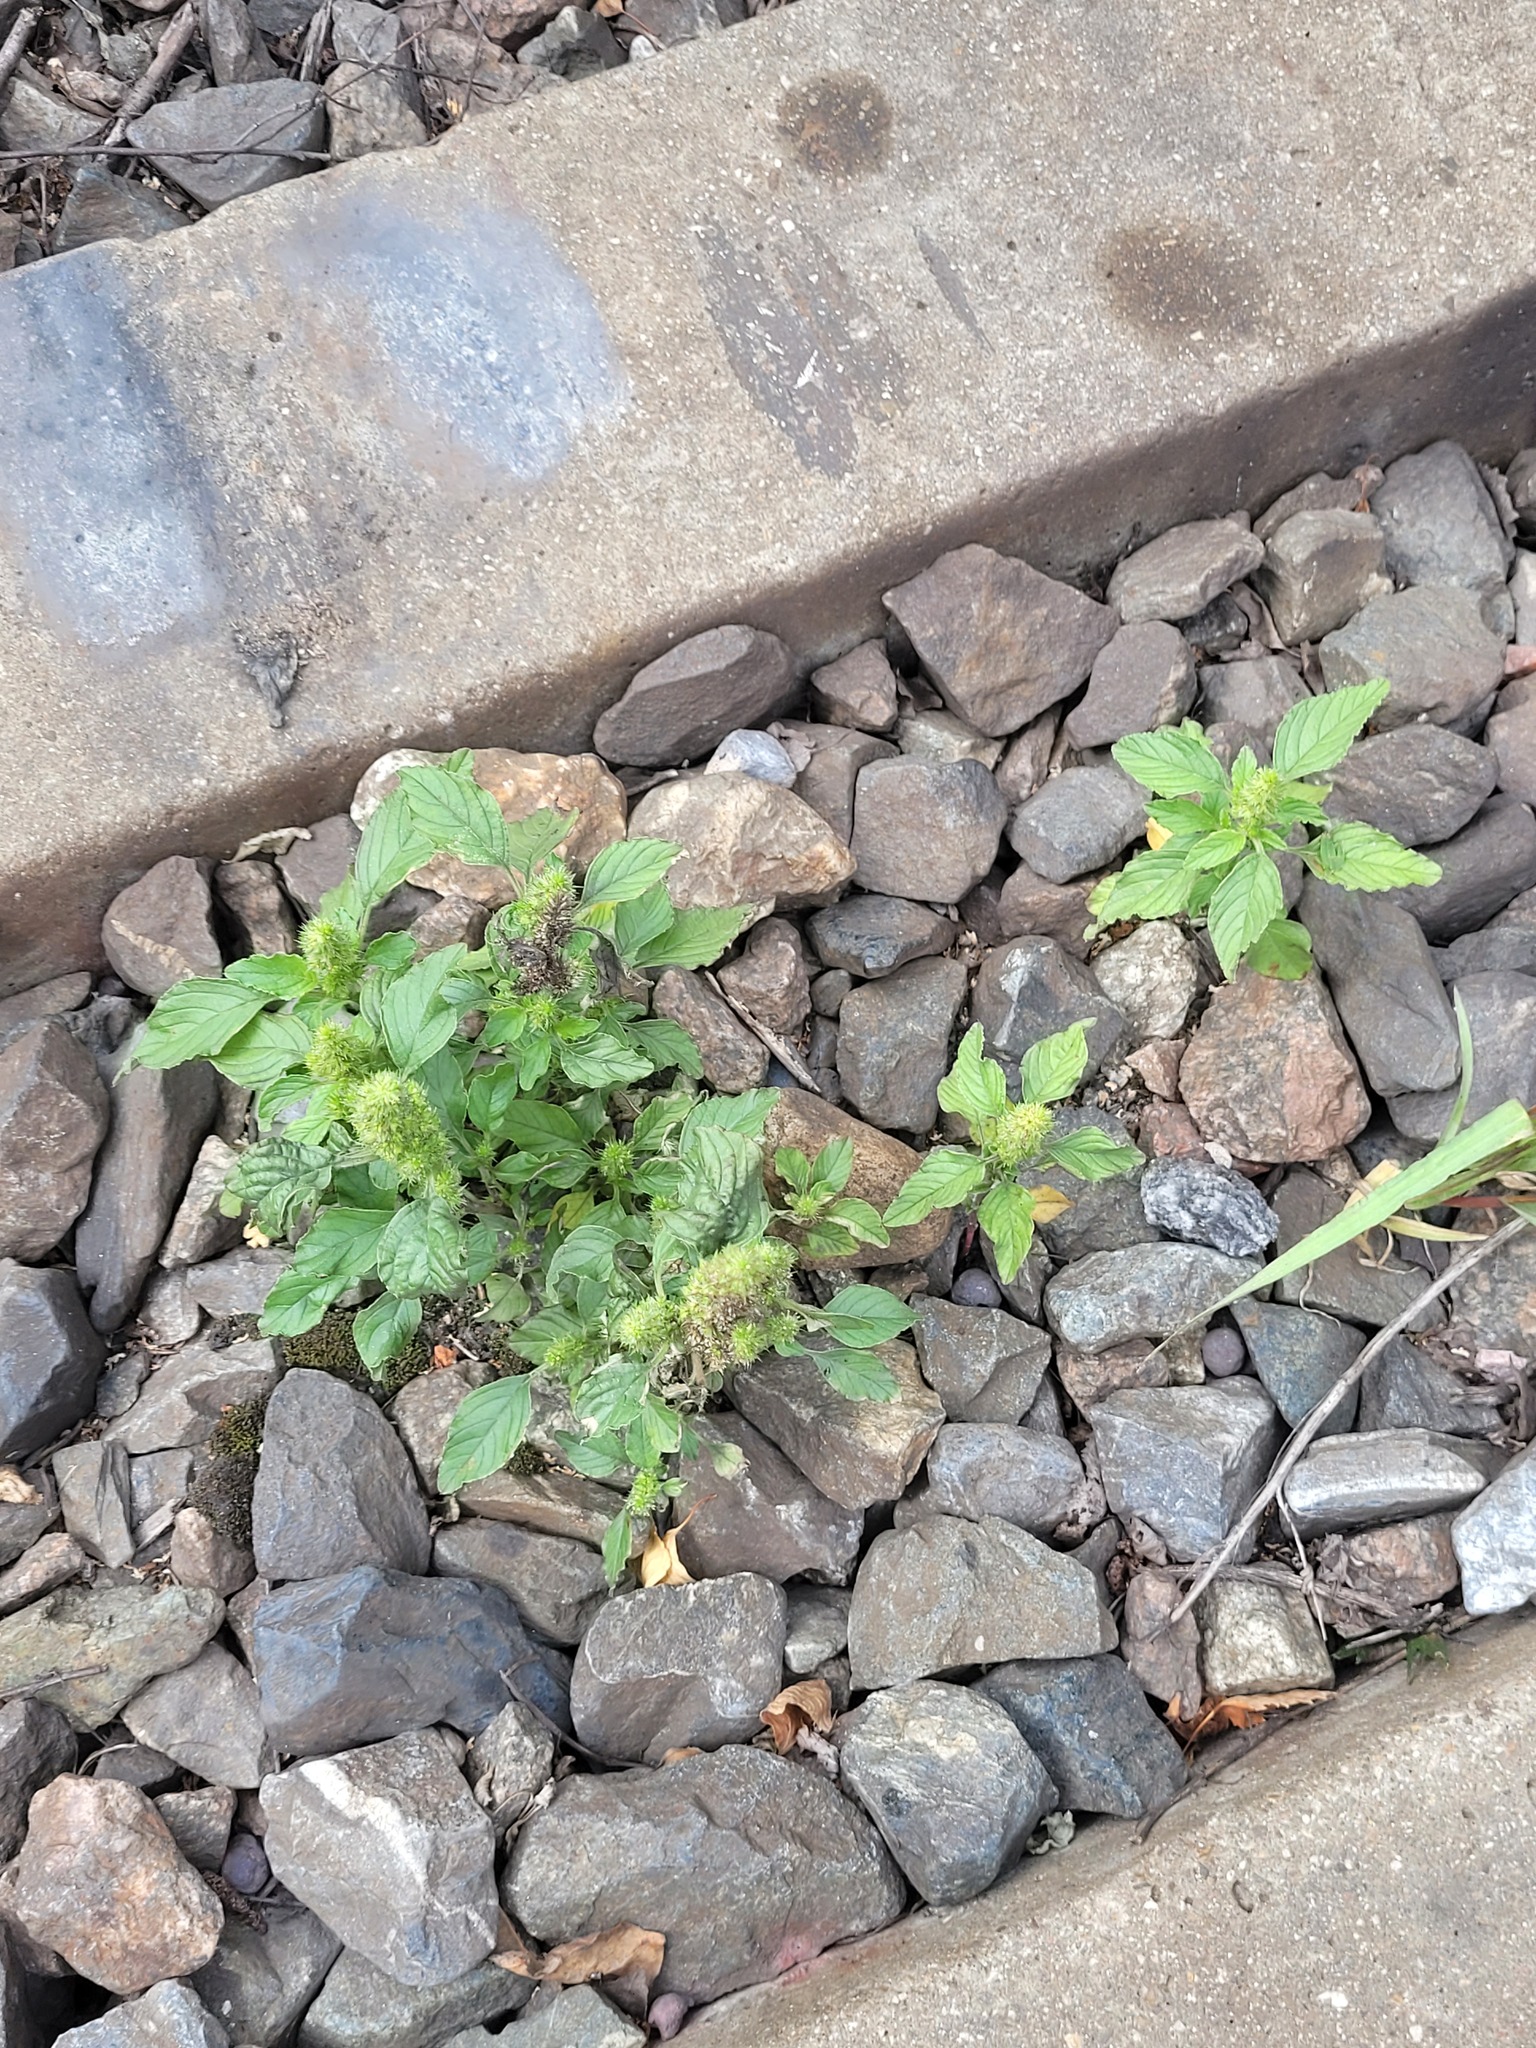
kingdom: Plantae
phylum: Tracheophyta
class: Magnoliopsida
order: Caryophyllales
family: Amaranthaceae
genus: Amaranthus
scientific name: Amaranthus retroflexus
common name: Redroot amaranth
